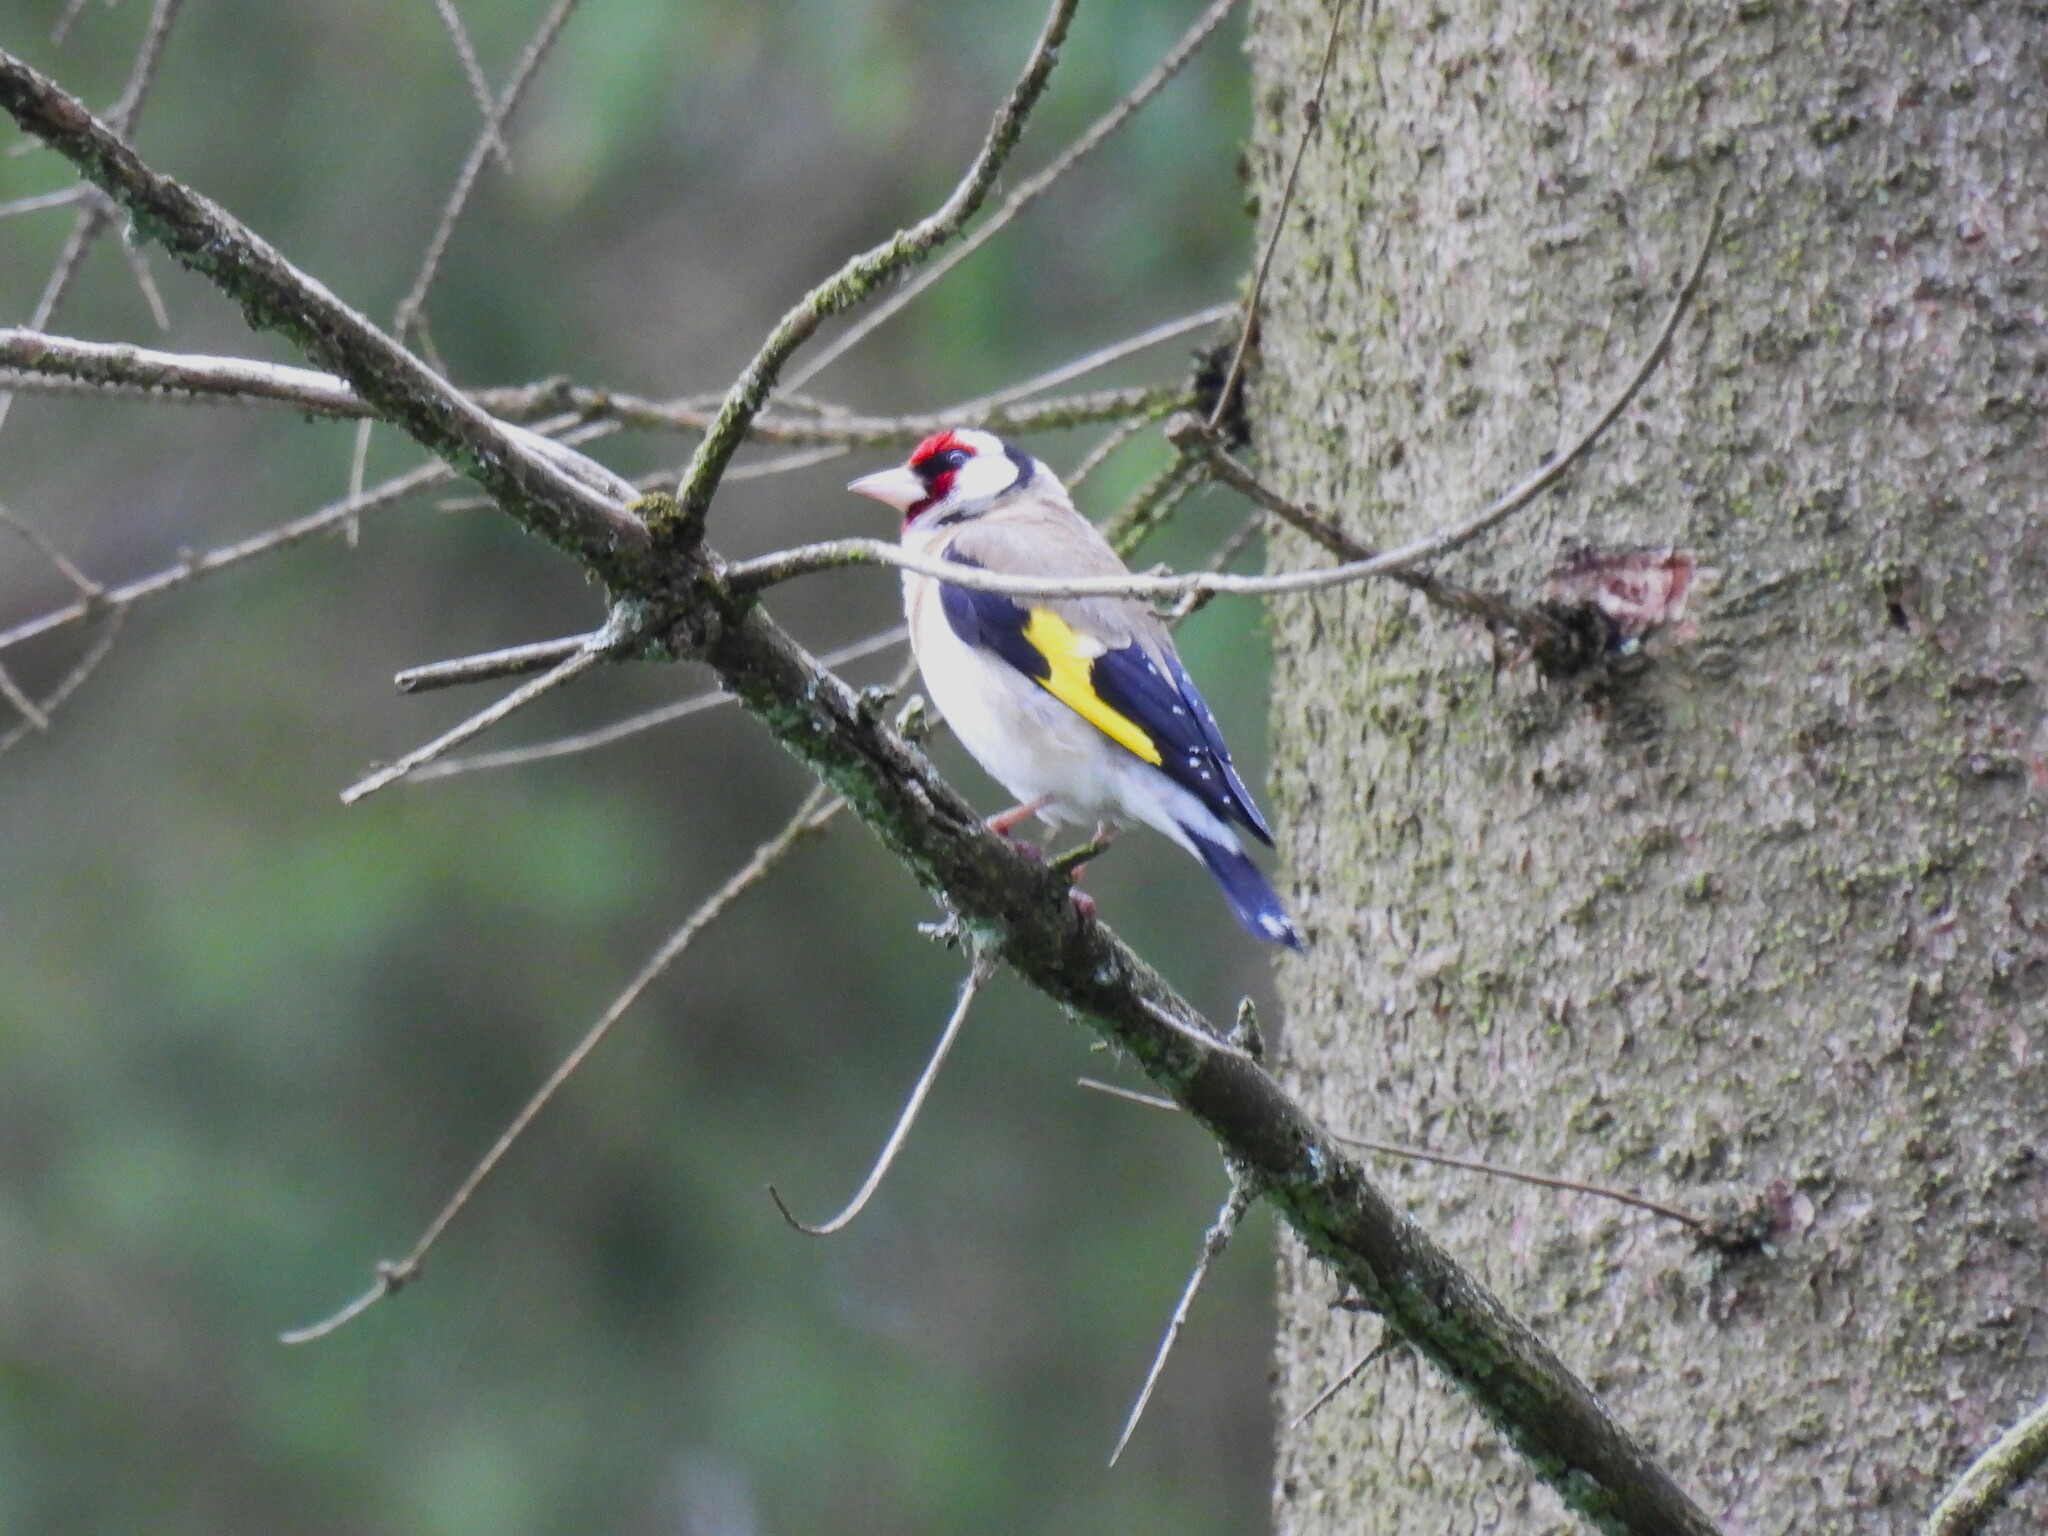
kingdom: Animalia
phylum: Chordata
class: Aves
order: Passeriformes
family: Fringillidae
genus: Carduelis
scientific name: Carduelis carduelis
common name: European goldfinch
